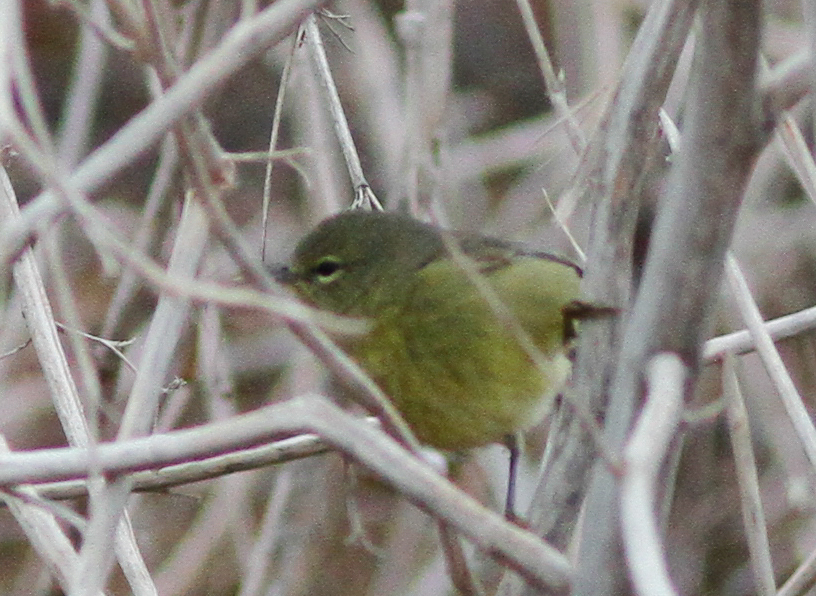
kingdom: Animalia
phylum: Chordata
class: Aves
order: Passeriformes
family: Parulidae
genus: Leiothlypis
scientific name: Leiothlypis celata
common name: Orange-crowned warbler
